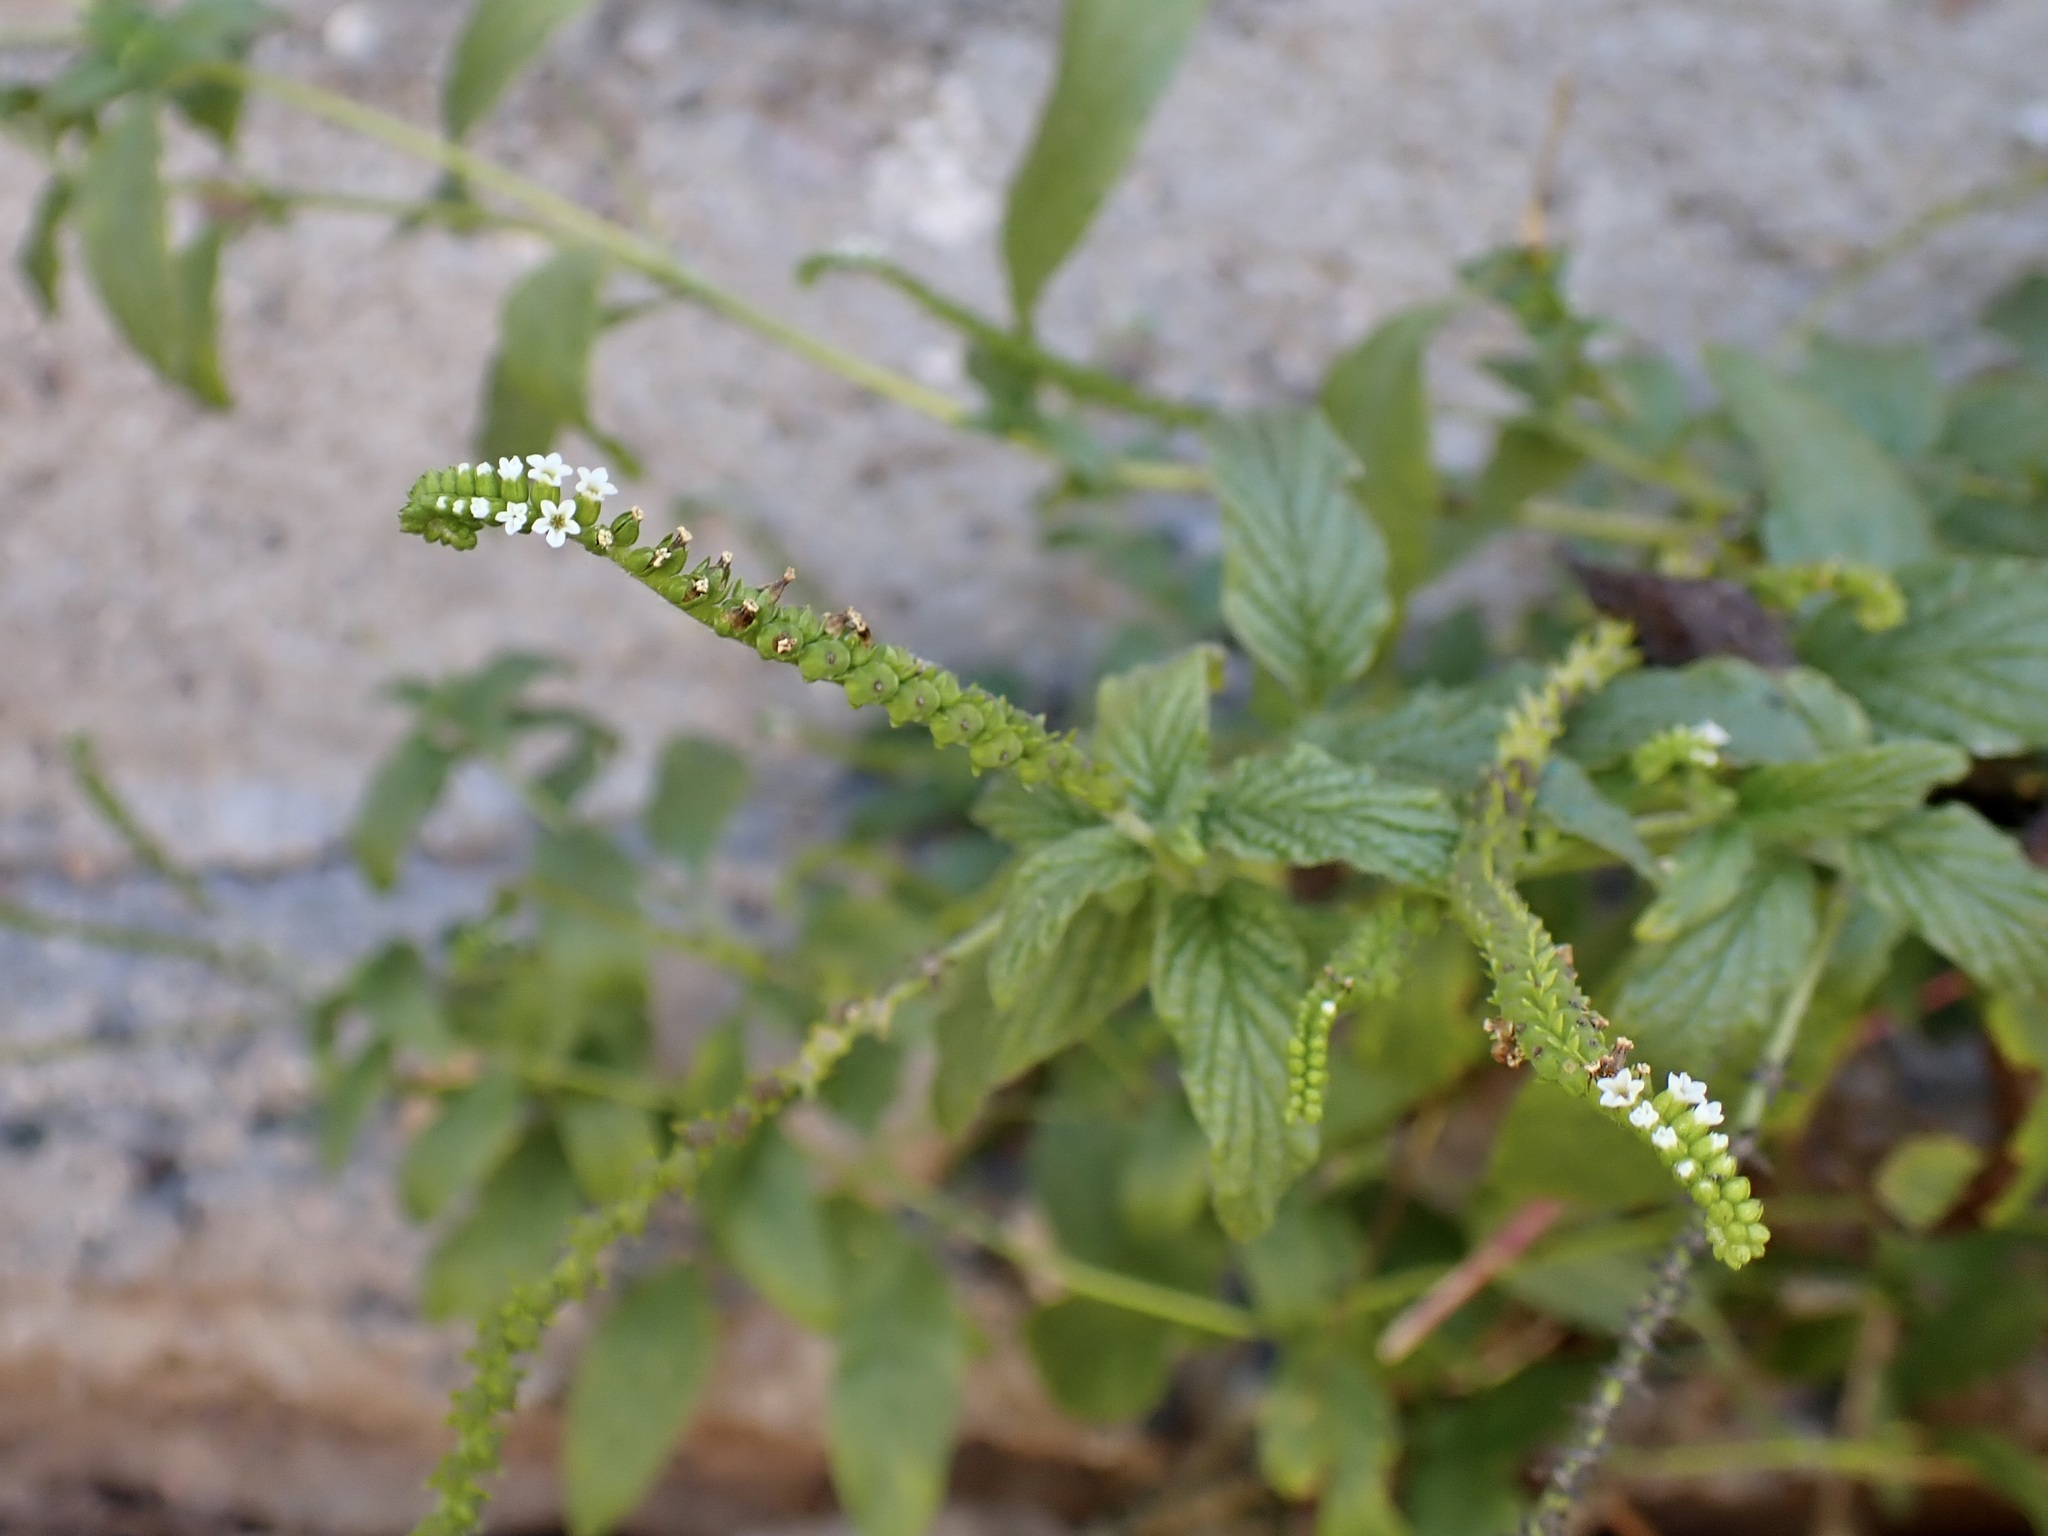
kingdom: Plantae
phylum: Tracheophyta
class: Magnoliopsida
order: Boraginales
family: Heliotropiaceae
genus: Heliotropium
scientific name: Heliotropium angiospermum
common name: Eye bright
